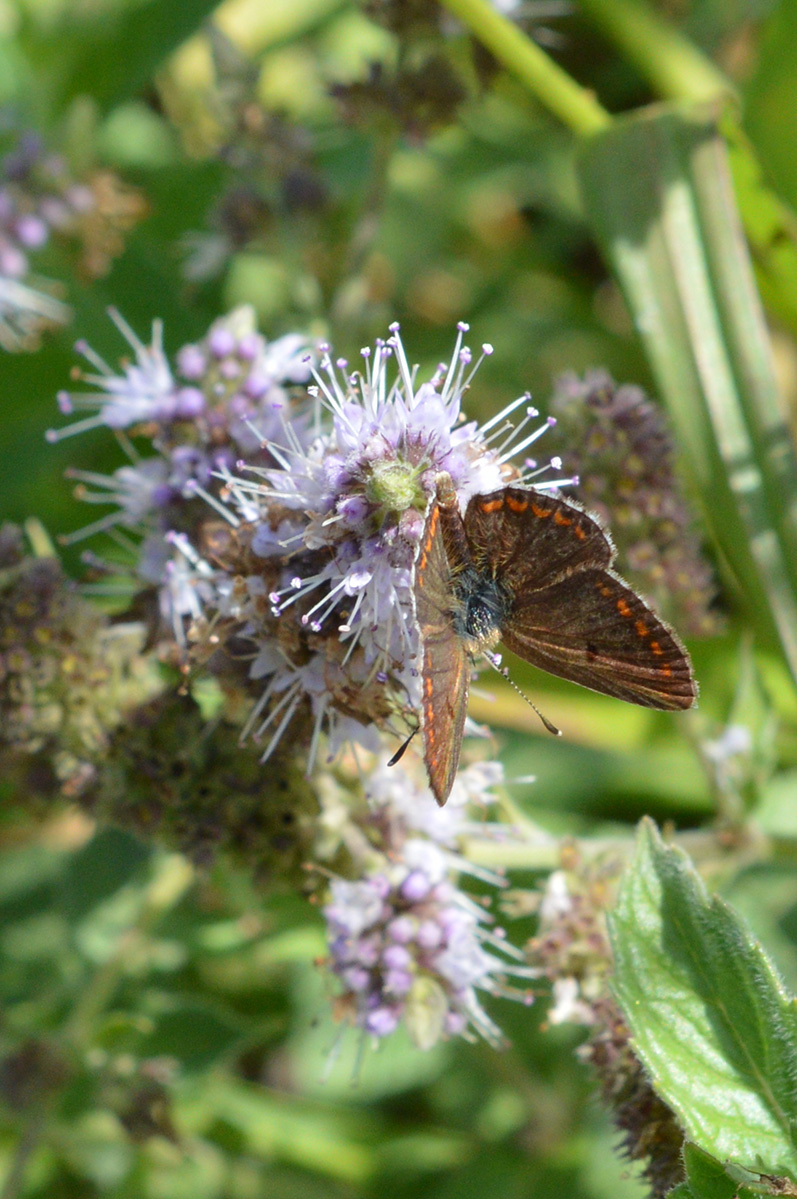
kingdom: Animalia
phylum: Arthropoda
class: Insecta
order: Lepidoptera
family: Lycaenidae
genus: Aricia
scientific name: Aricia agestis
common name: Brown argus
